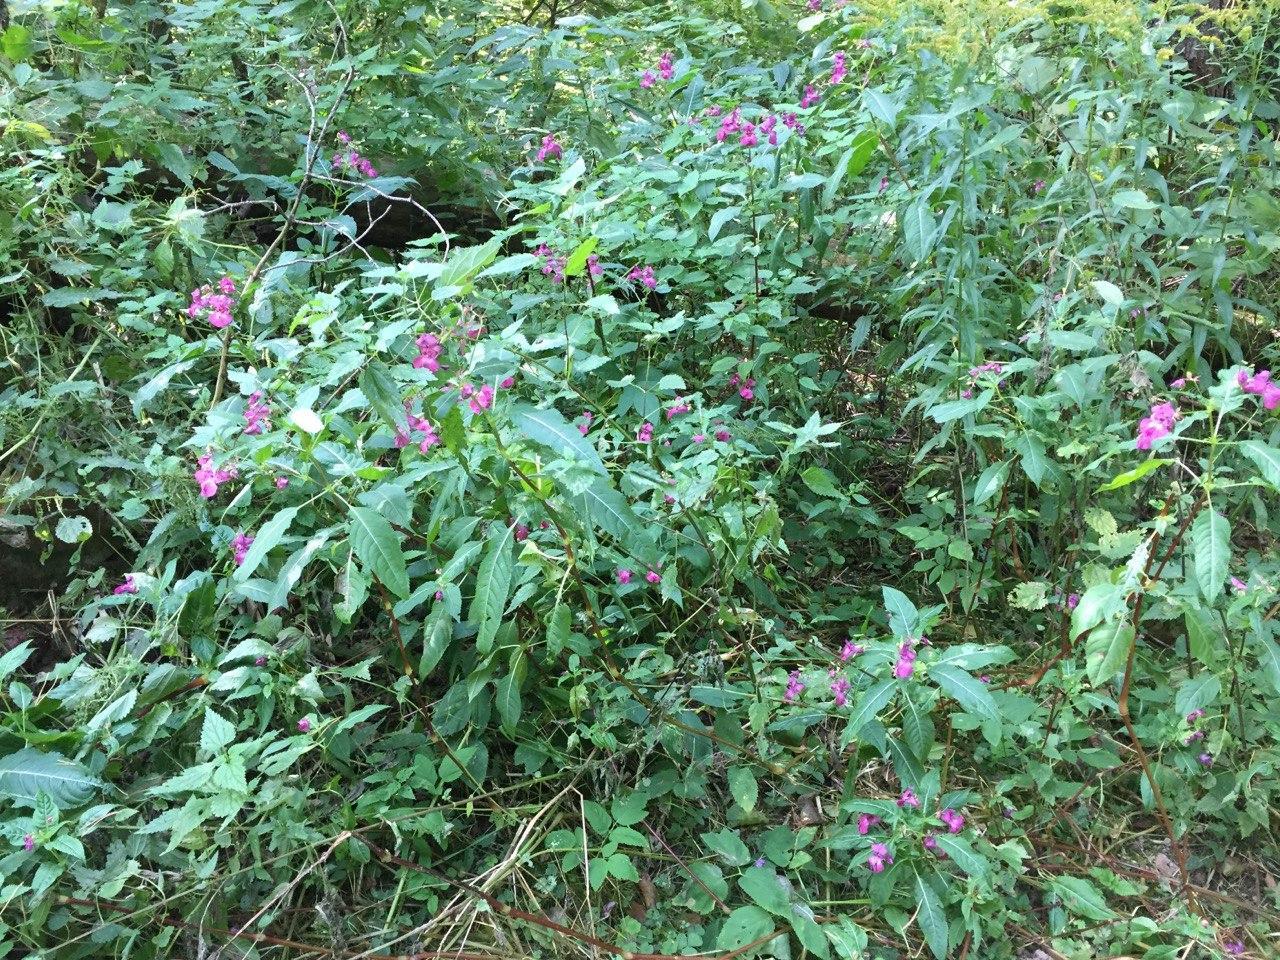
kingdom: Plantae
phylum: Tracheophyta
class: Magnoliopsida
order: Ericales
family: Balsaminaceae
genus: Impatiens
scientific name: Impatiens glandulifera
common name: Himalayan balsam
